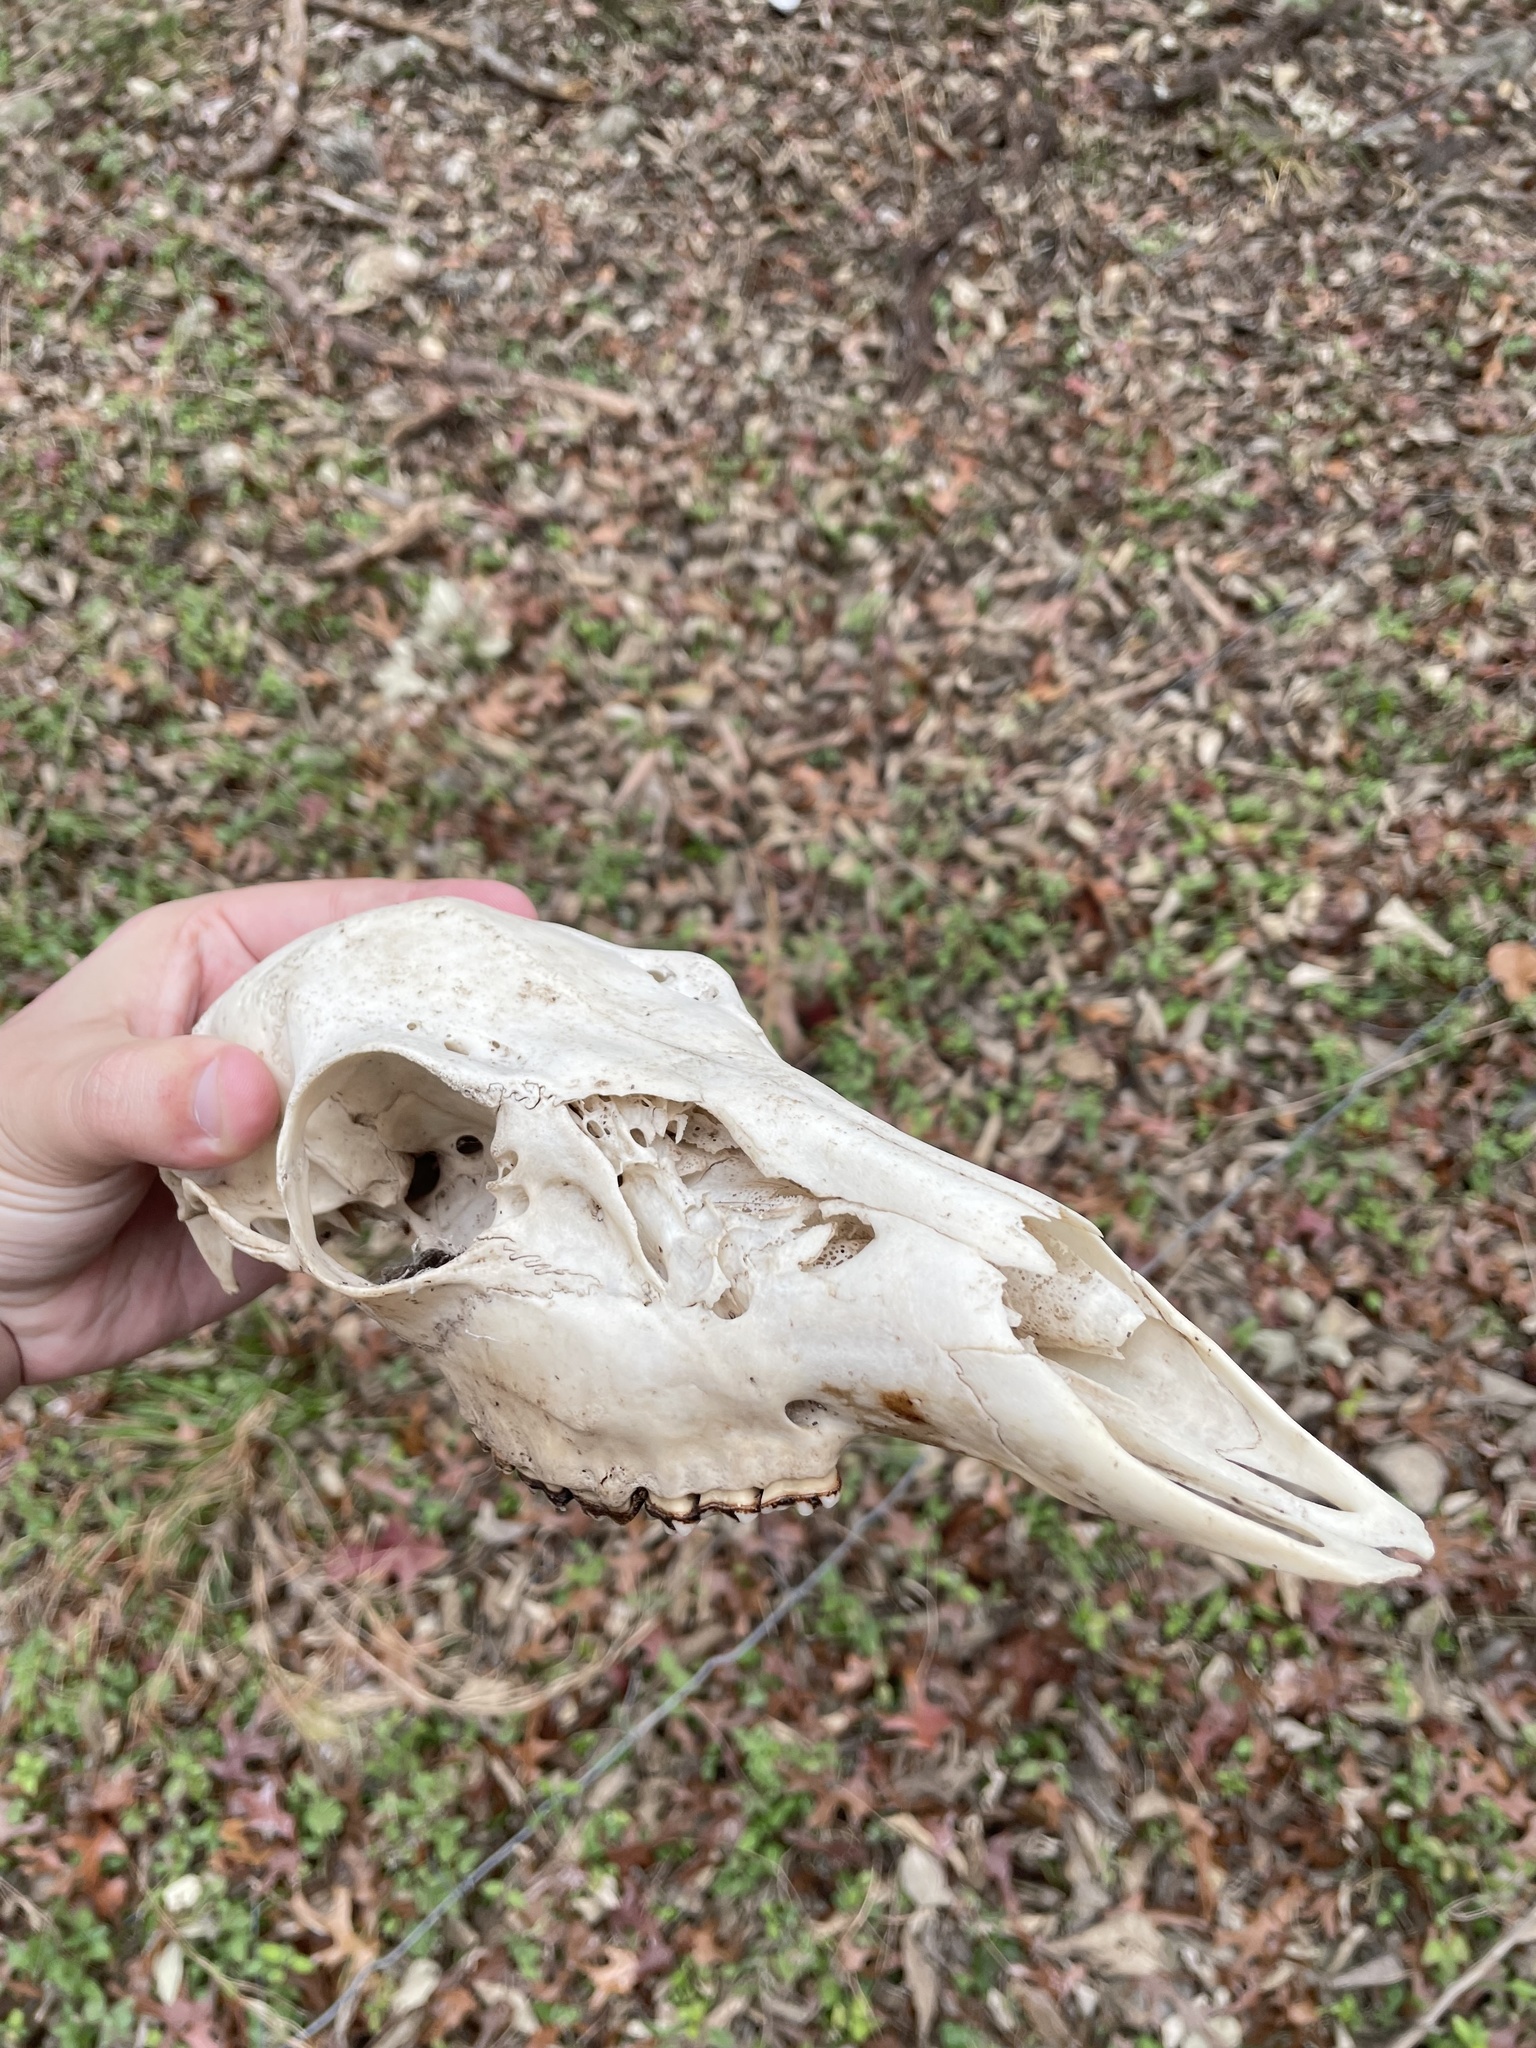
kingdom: Animalia
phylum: Chordata
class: Mammalia
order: Artiodactyla
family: Cervidae
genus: Odocoileus
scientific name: Odocoileus virginianus
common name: White-tailed deer
